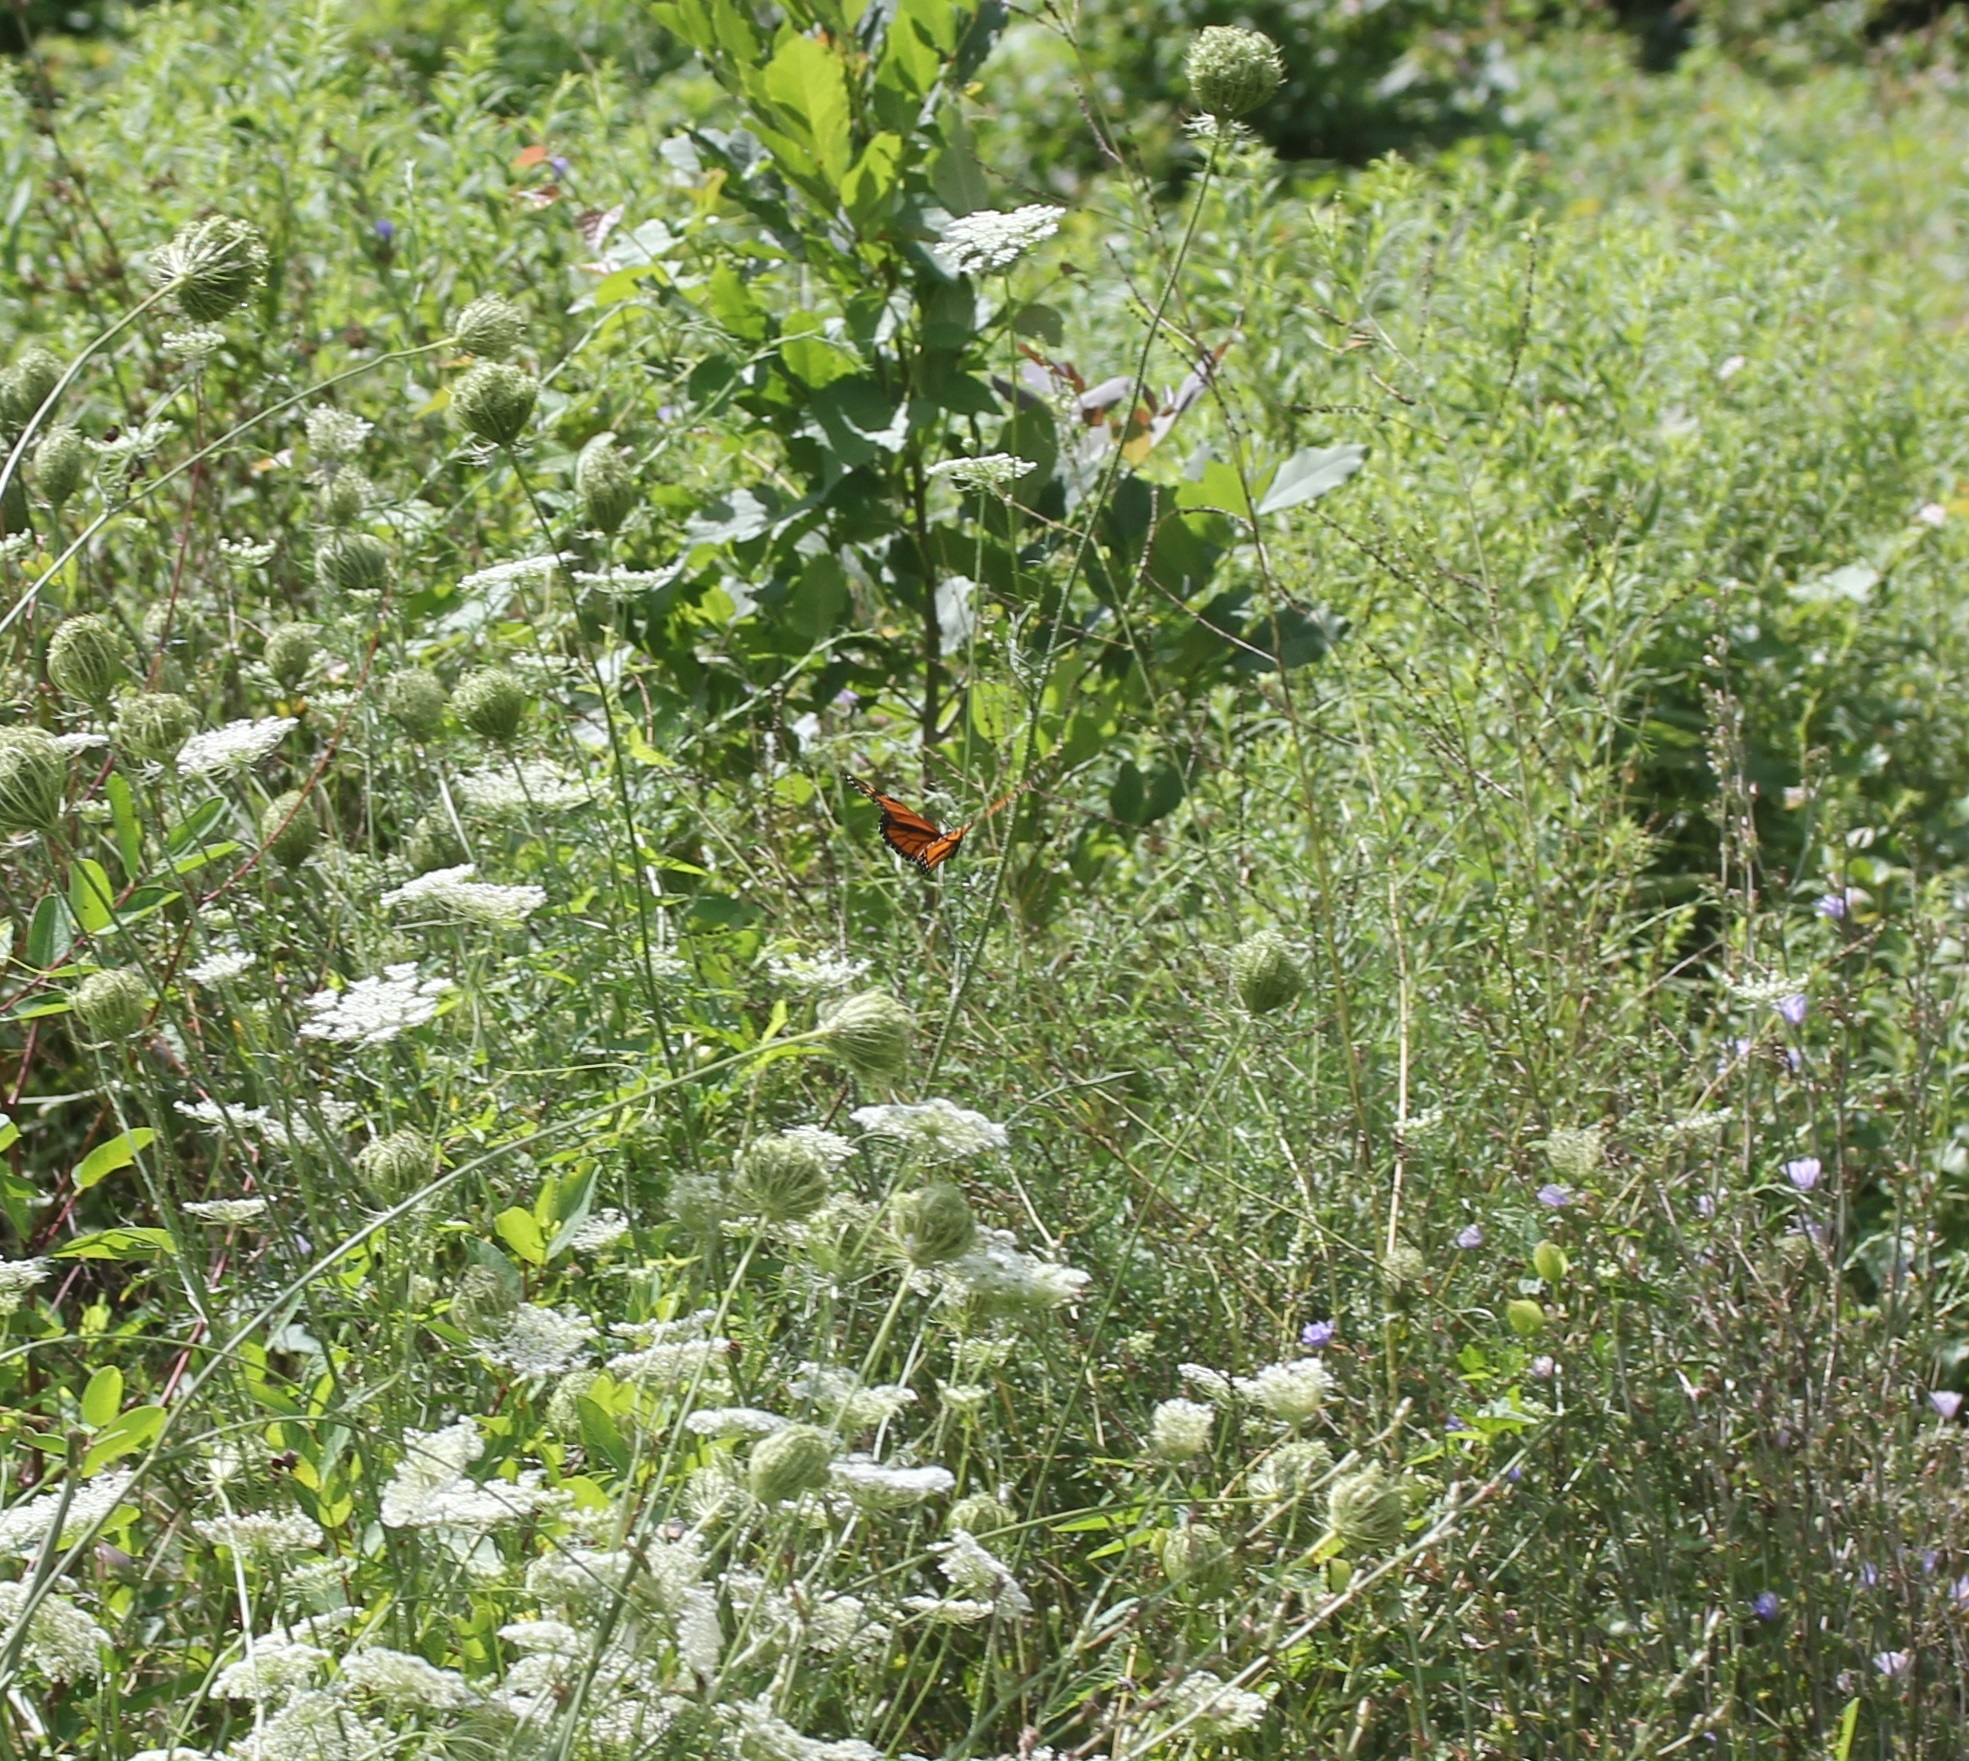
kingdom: Animalia
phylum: Arthropoda
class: Insecta
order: Lepidoptera
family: Nymphalidae
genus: Danaus
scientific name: Danaus plexippus
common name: Monarch
